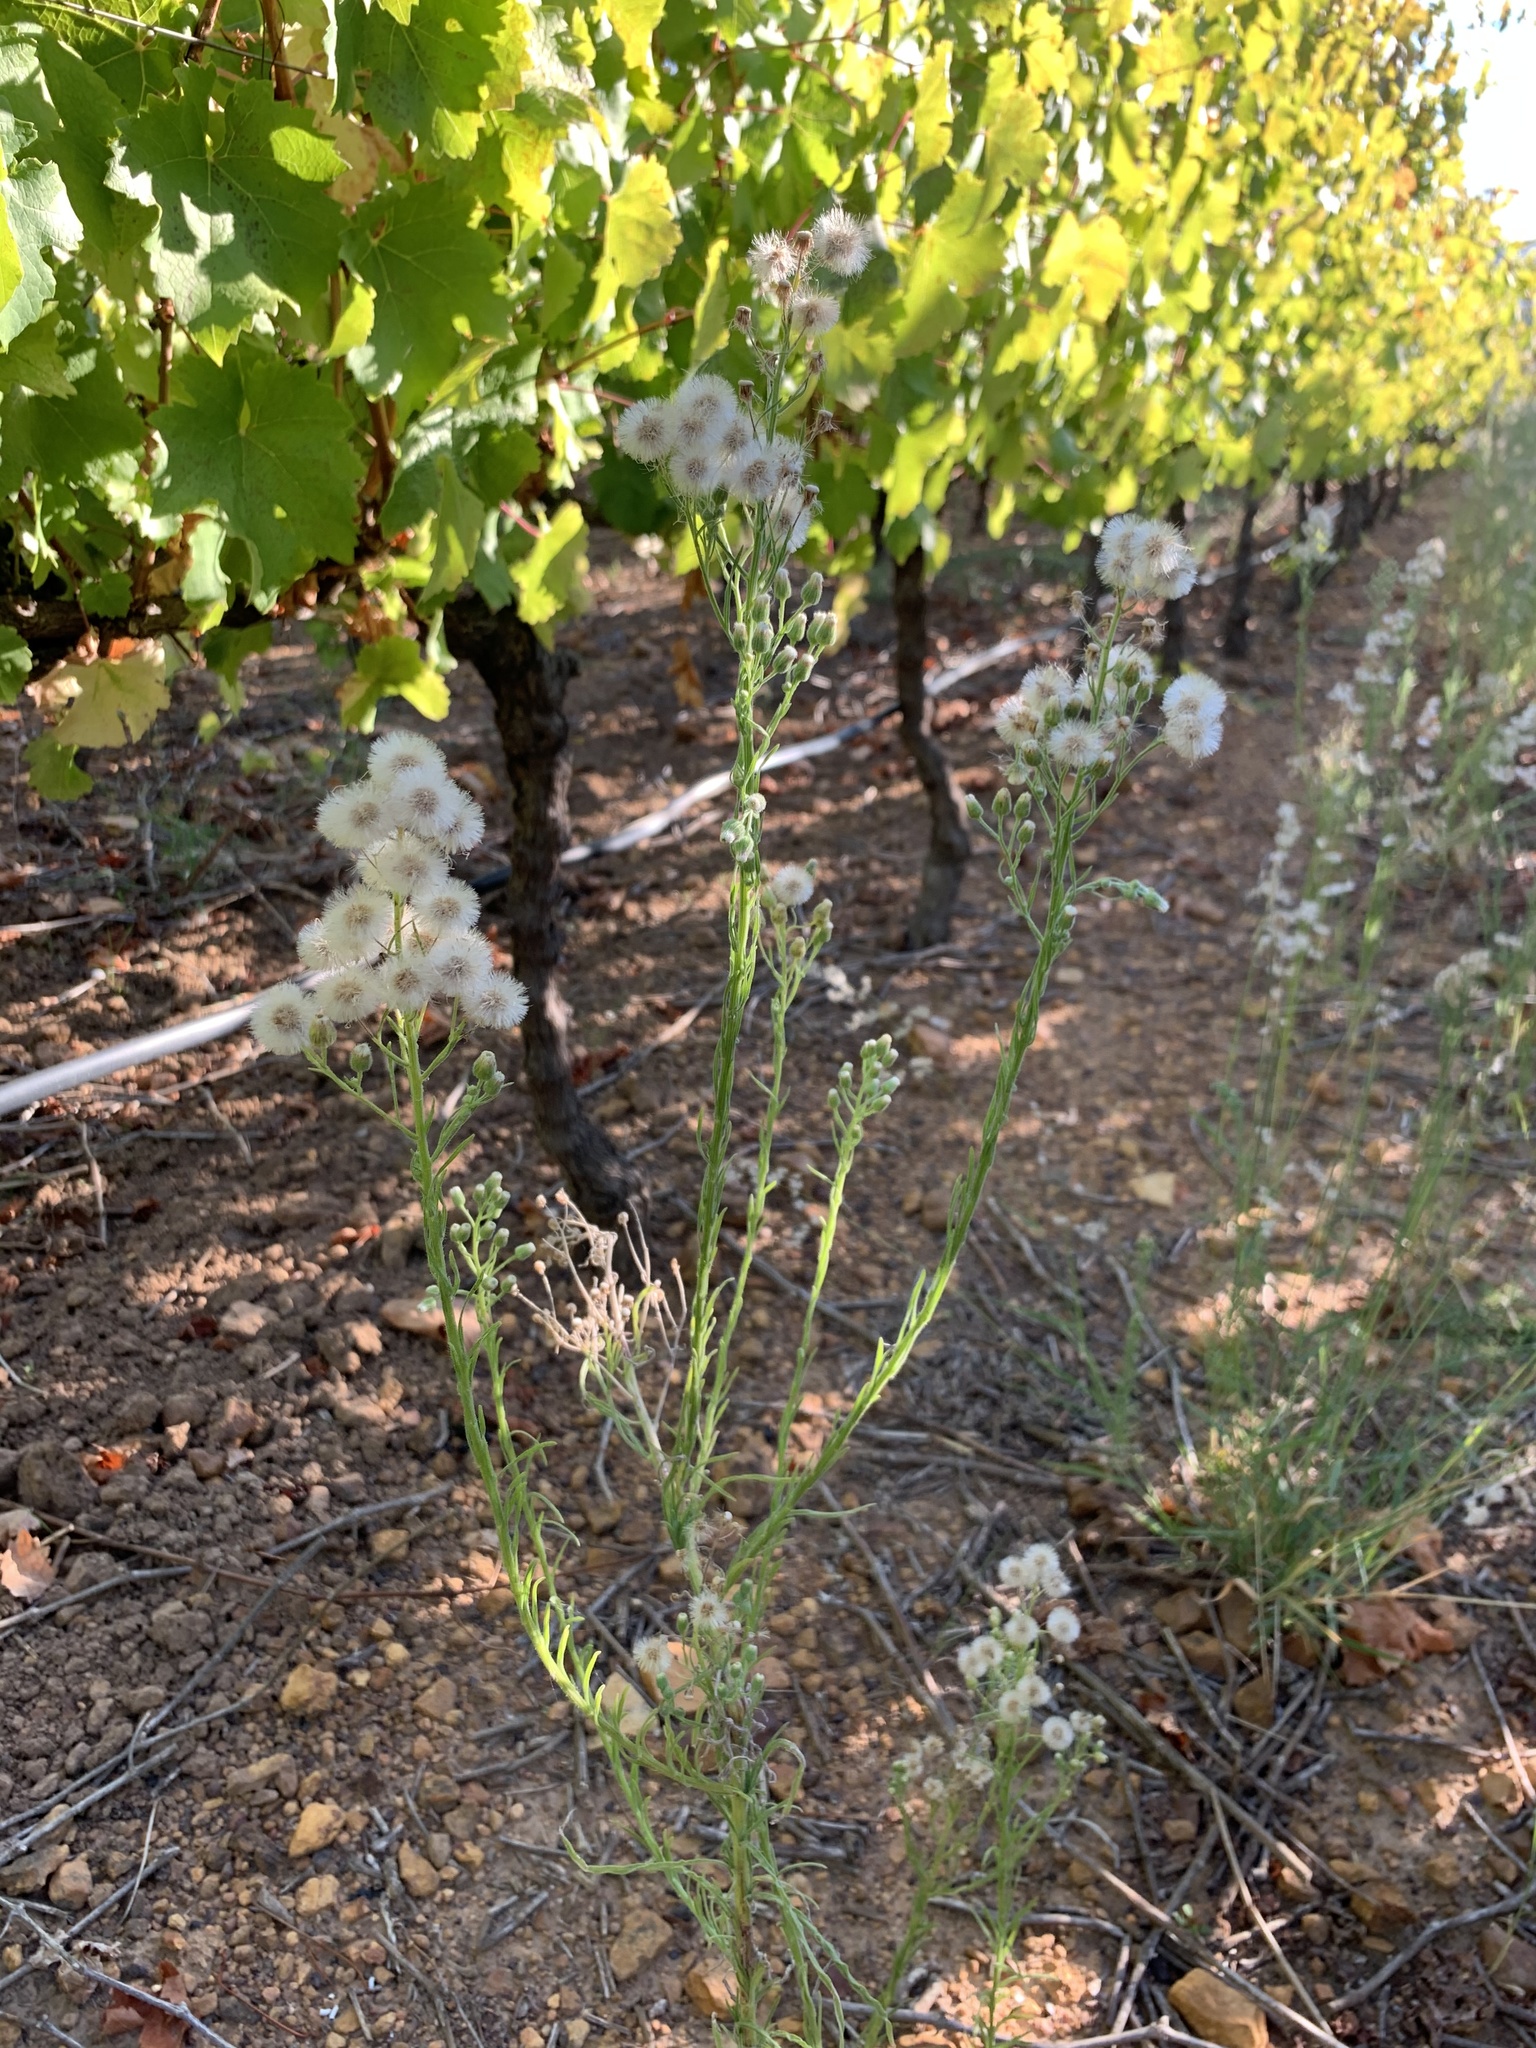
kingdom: Plantae
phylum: Tracheophyta
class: Magnoliopsida
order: Asterales
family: Asteraceae
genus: Erigeron
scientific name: Erigeron bonariensis
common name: Argentine fleabane
